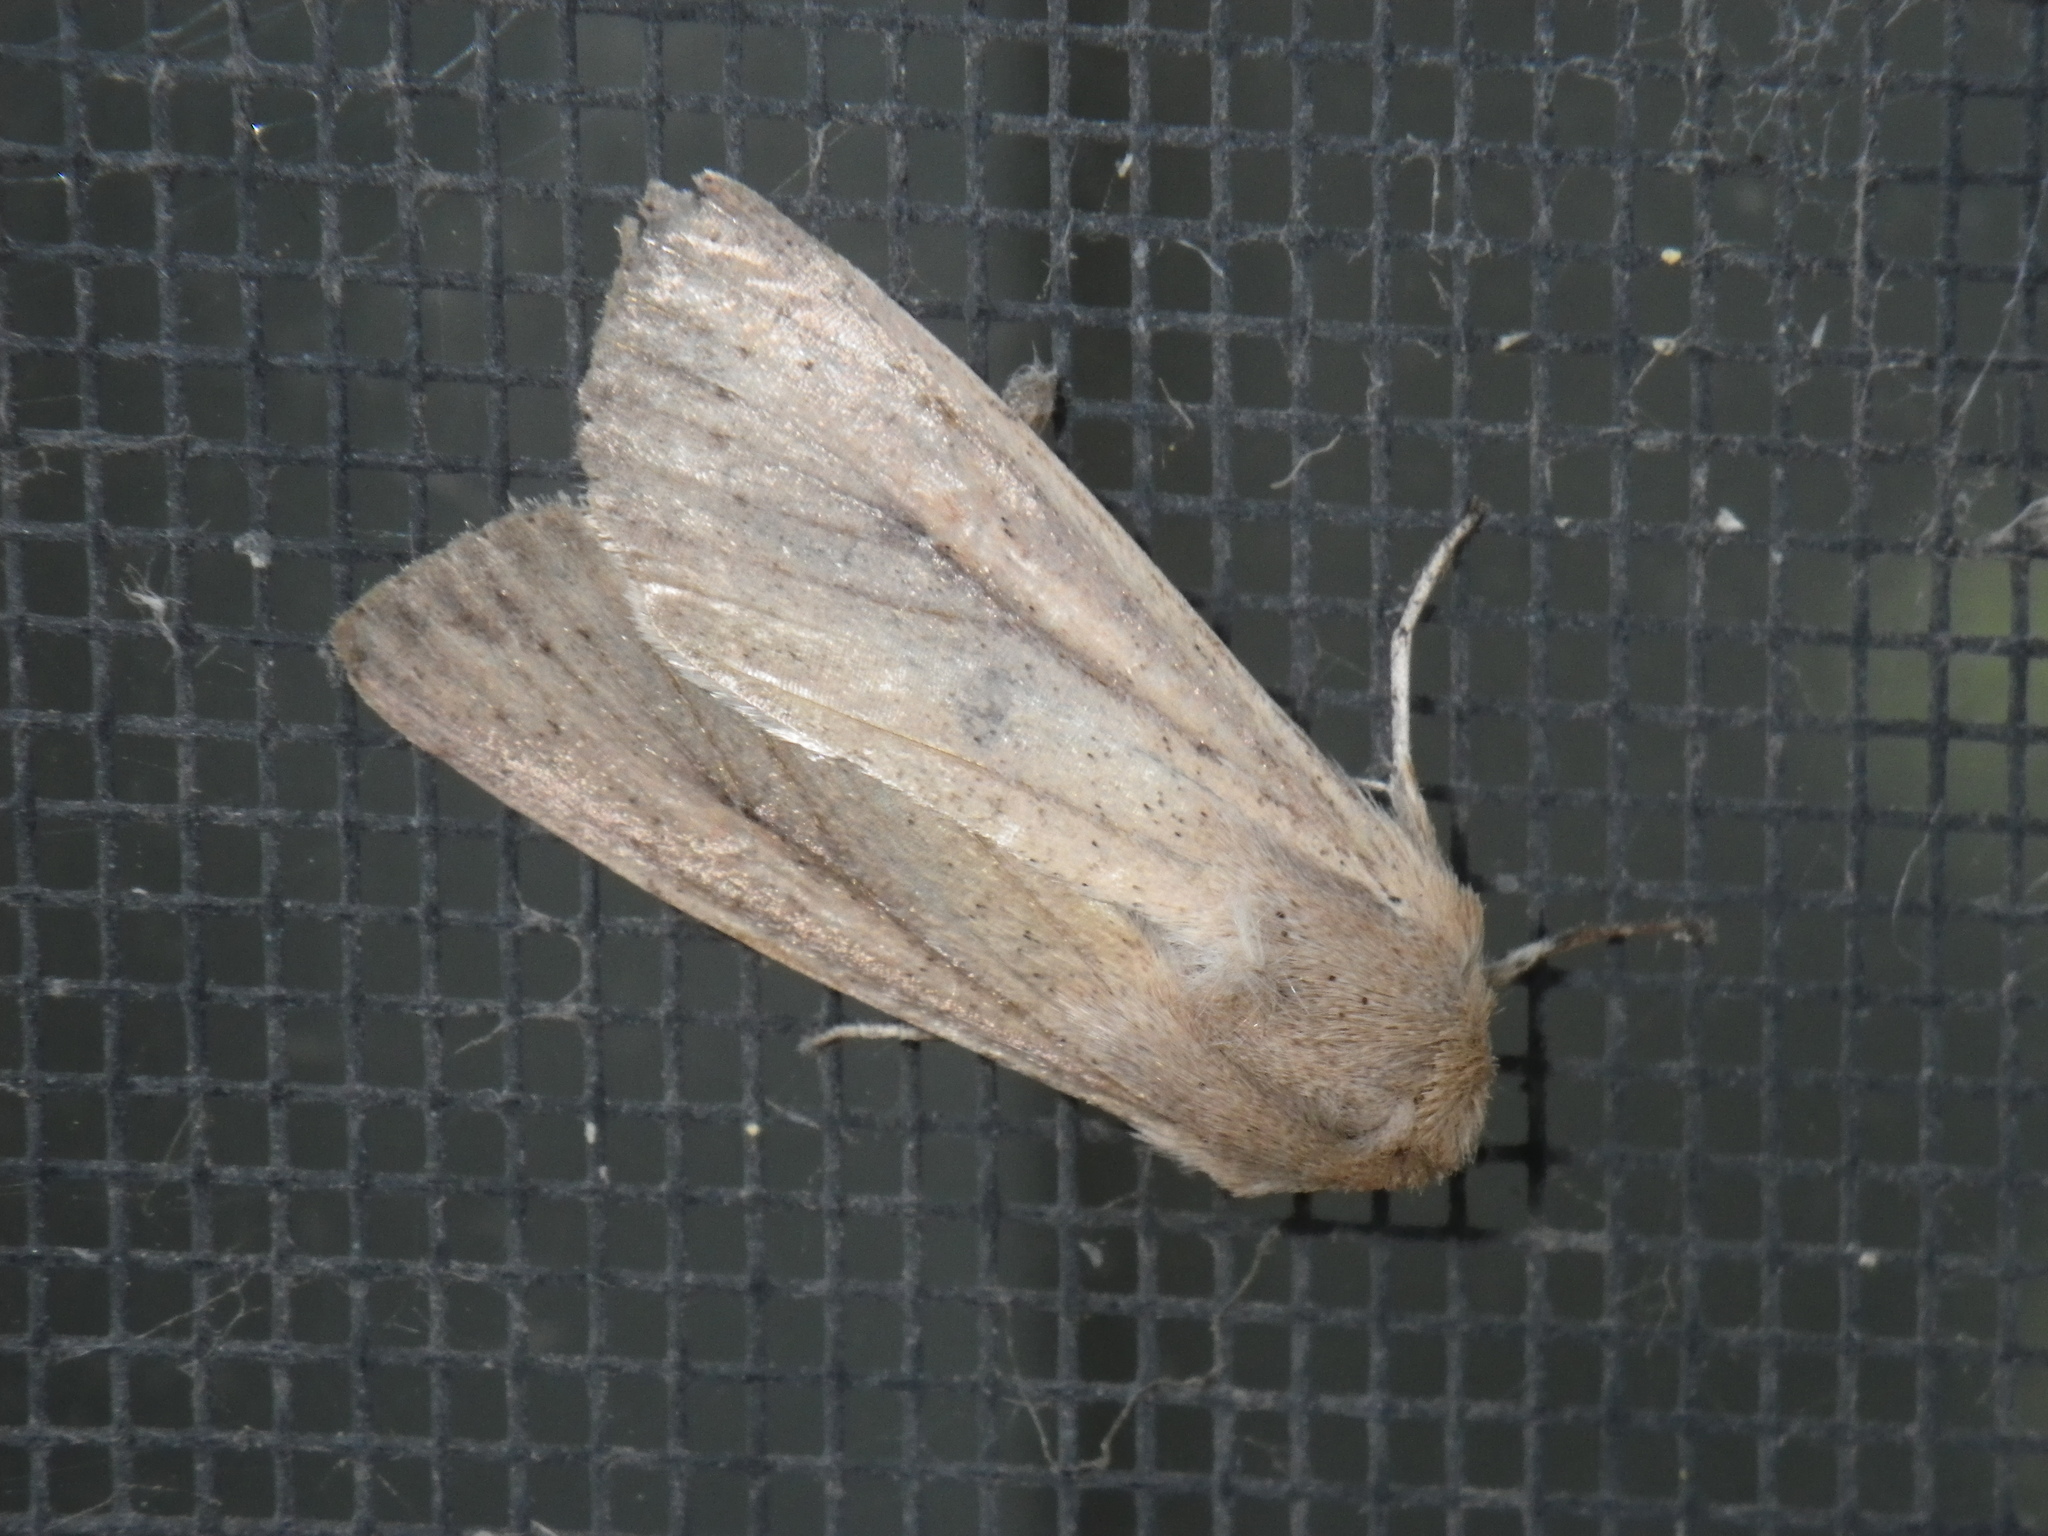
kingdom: Animalia
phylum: Arthropoda
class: Insecta
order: Lepidoptera
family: Noctuidae
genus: Mythimna
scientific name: Mythimna unipuncta
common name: White-speck
